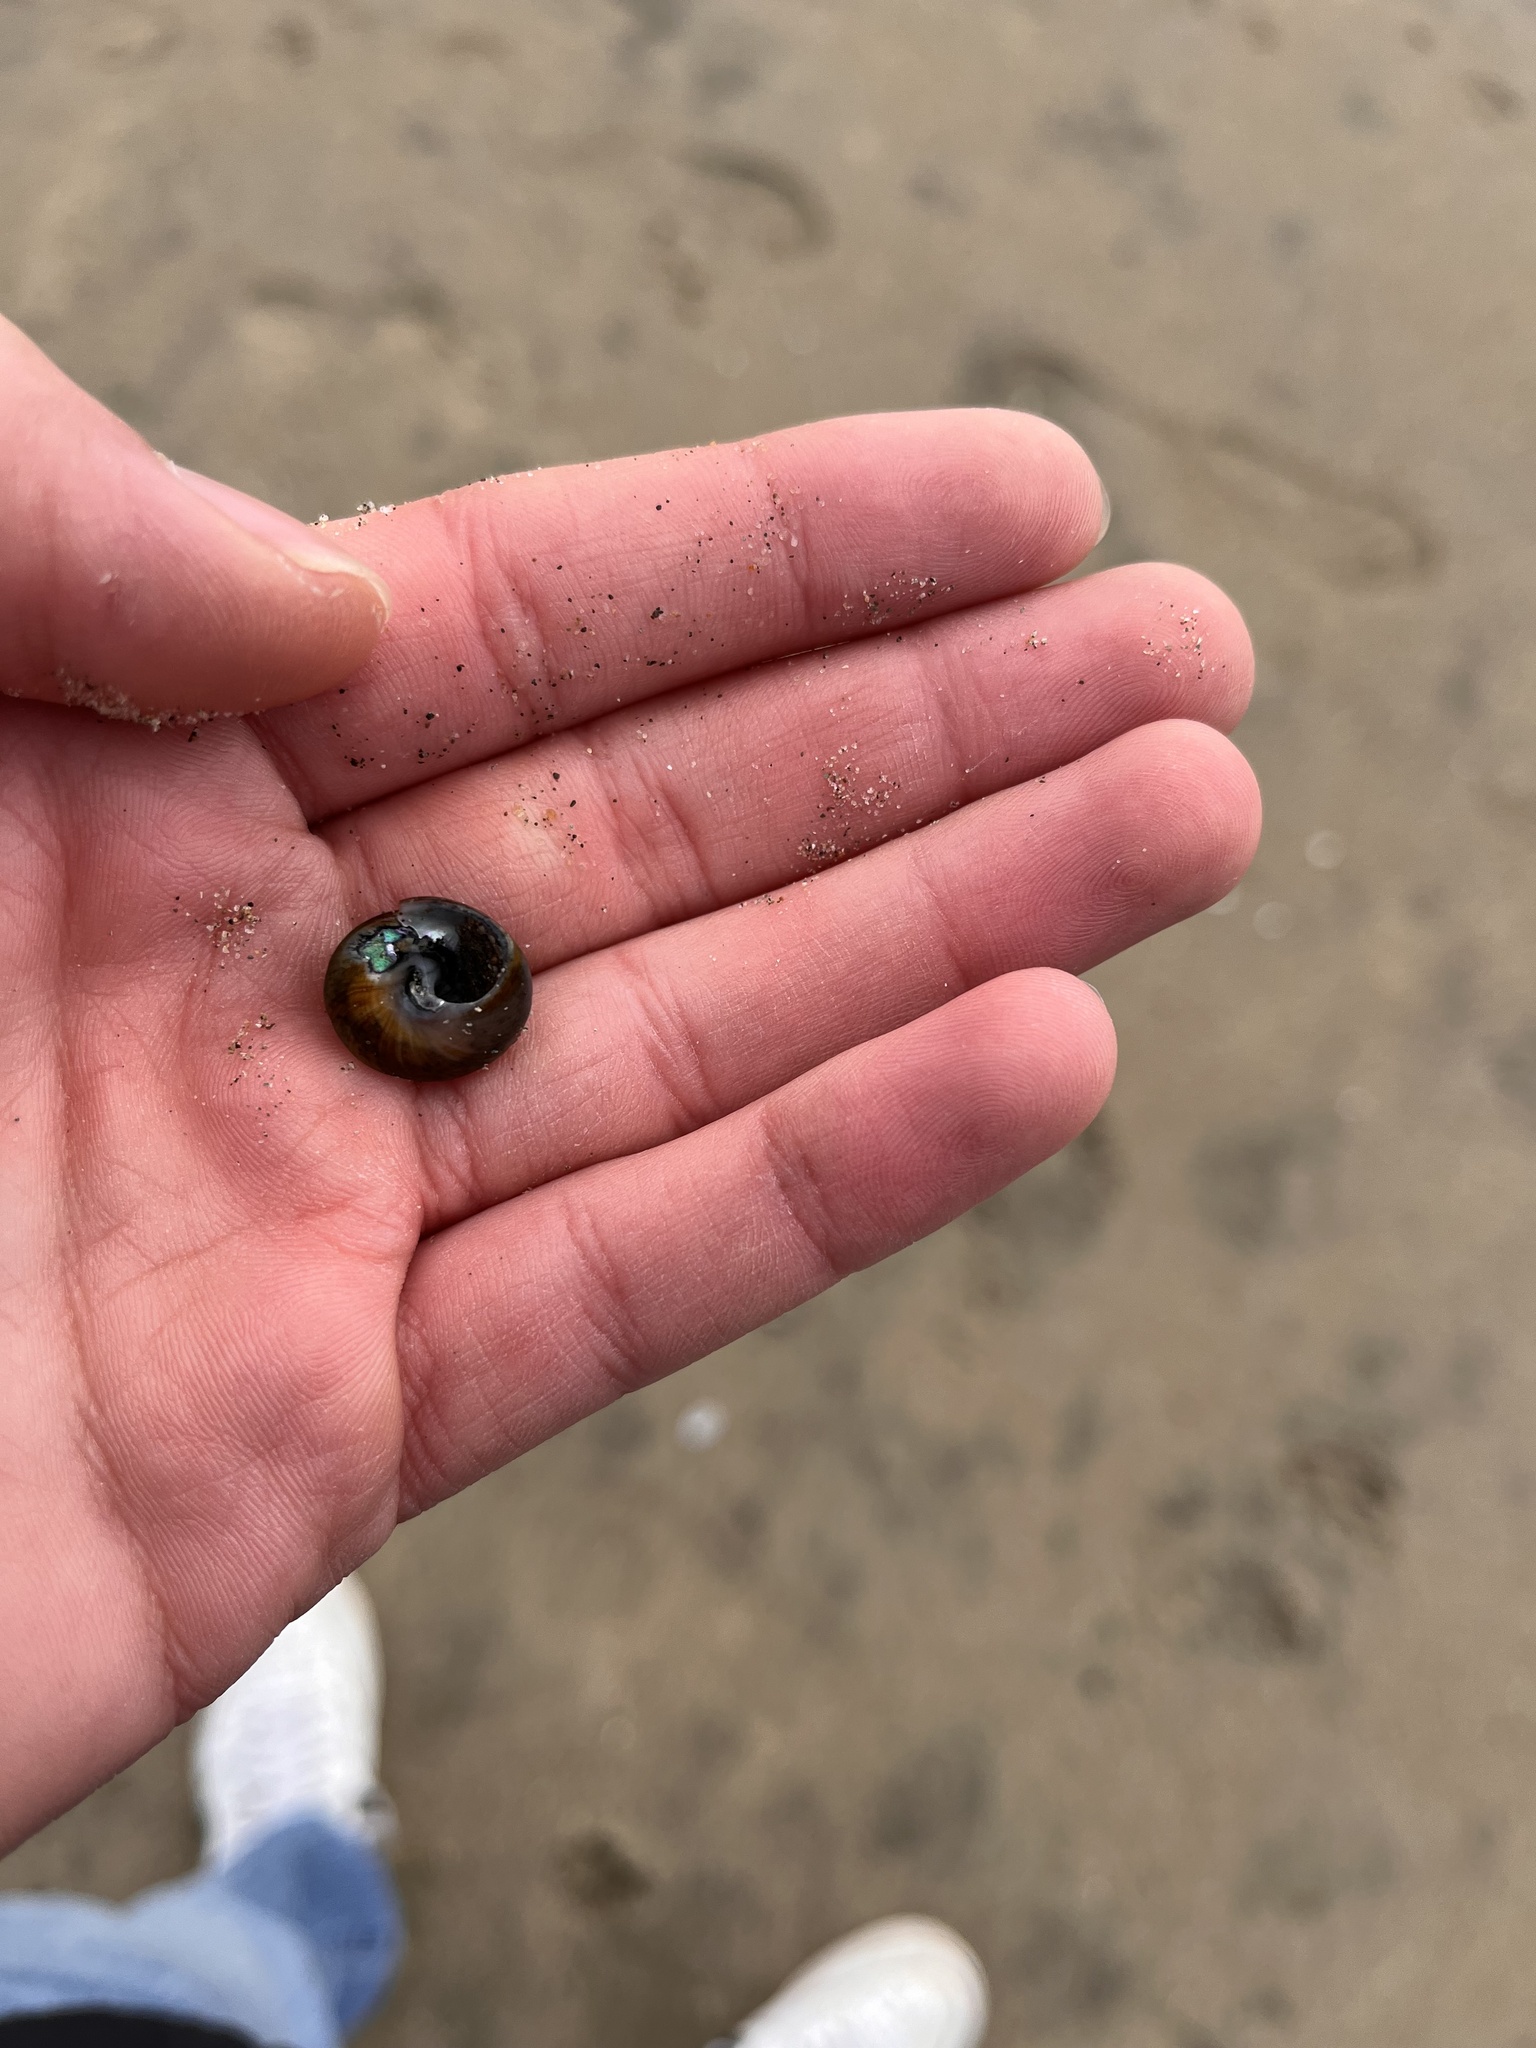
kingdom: Animalia
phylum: Mollusca
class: Gastropoda
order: Trochida
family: Tegulidae
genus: Tegula
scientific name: Tegula brunnea
